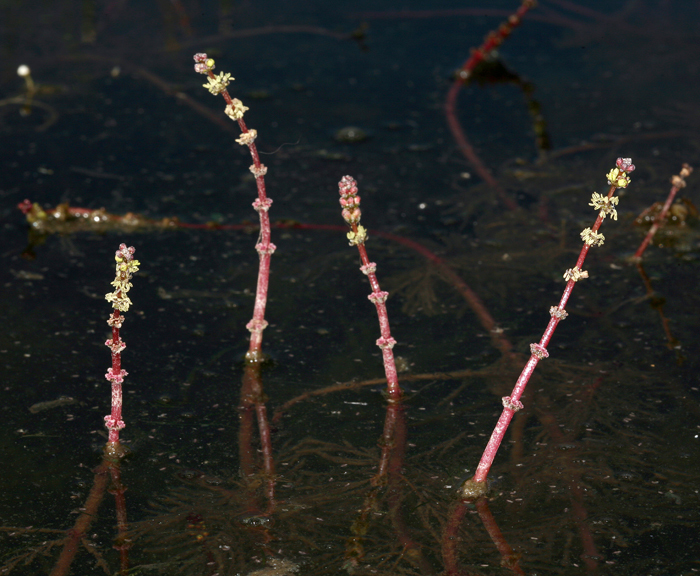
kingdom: Plantae
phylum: Tracheophyta
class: Magnoliopsida
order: Saxifragales
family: Haloragaceae
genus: Myriophyllum
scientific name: Myriophyllum sibiricum
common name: Siberian water-milfoil
